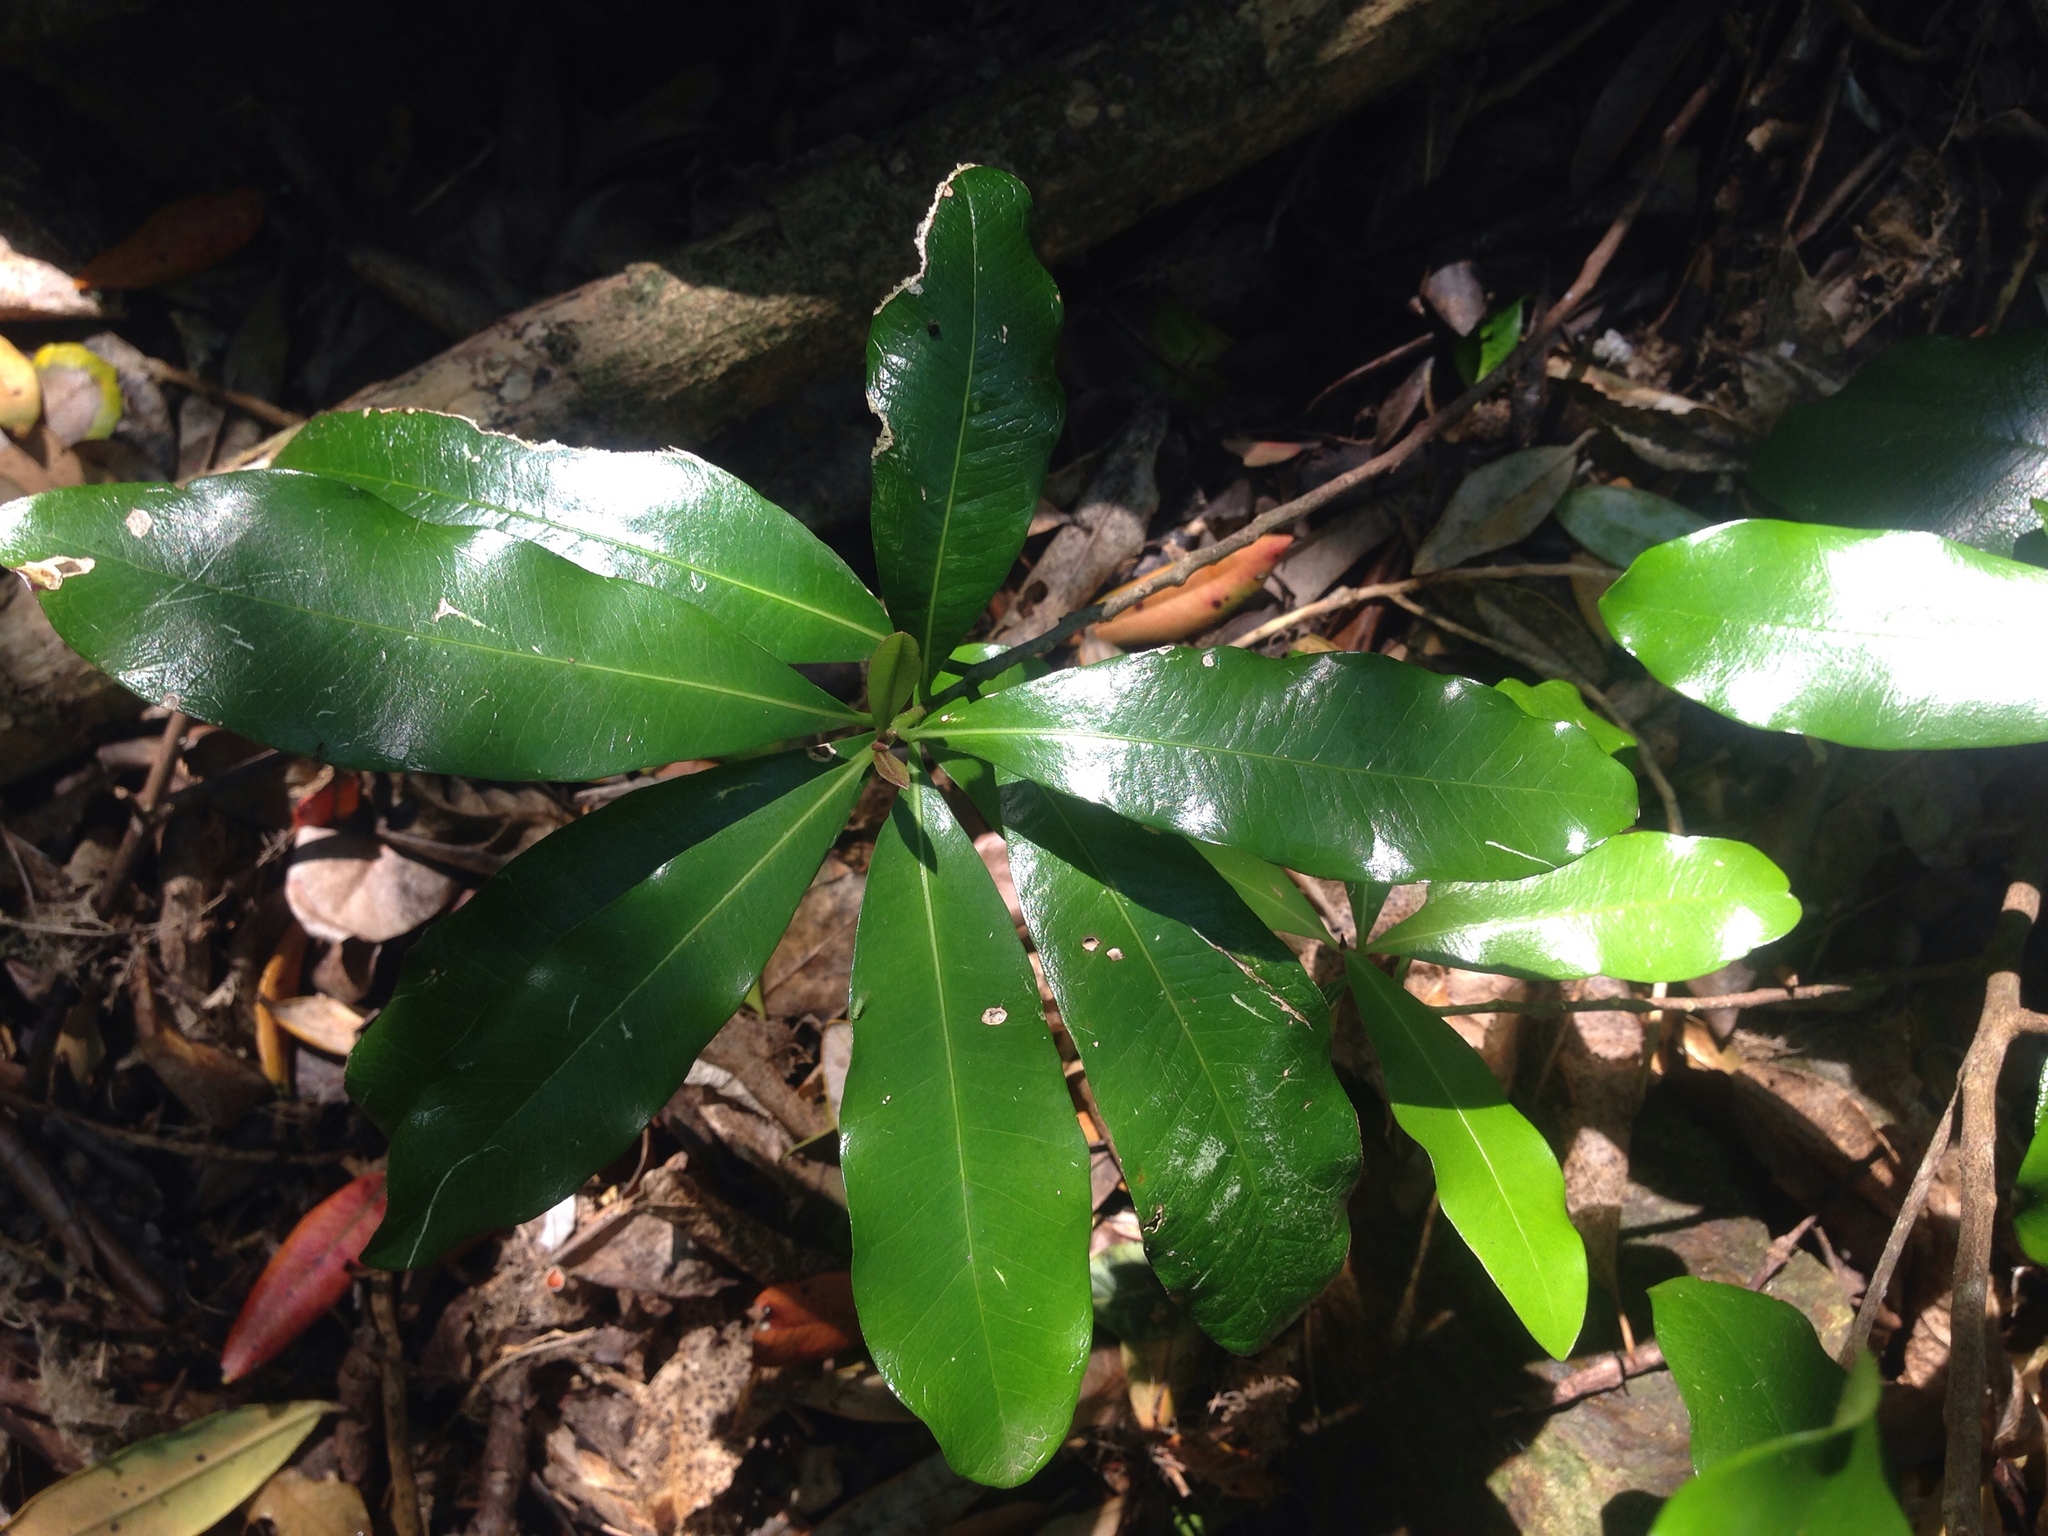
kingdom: Plantae
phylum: Tracheophyta
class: Magnoliopsida
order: Ericales
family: Sapotaceae
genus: Planchonella
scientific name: Planchonella costata
